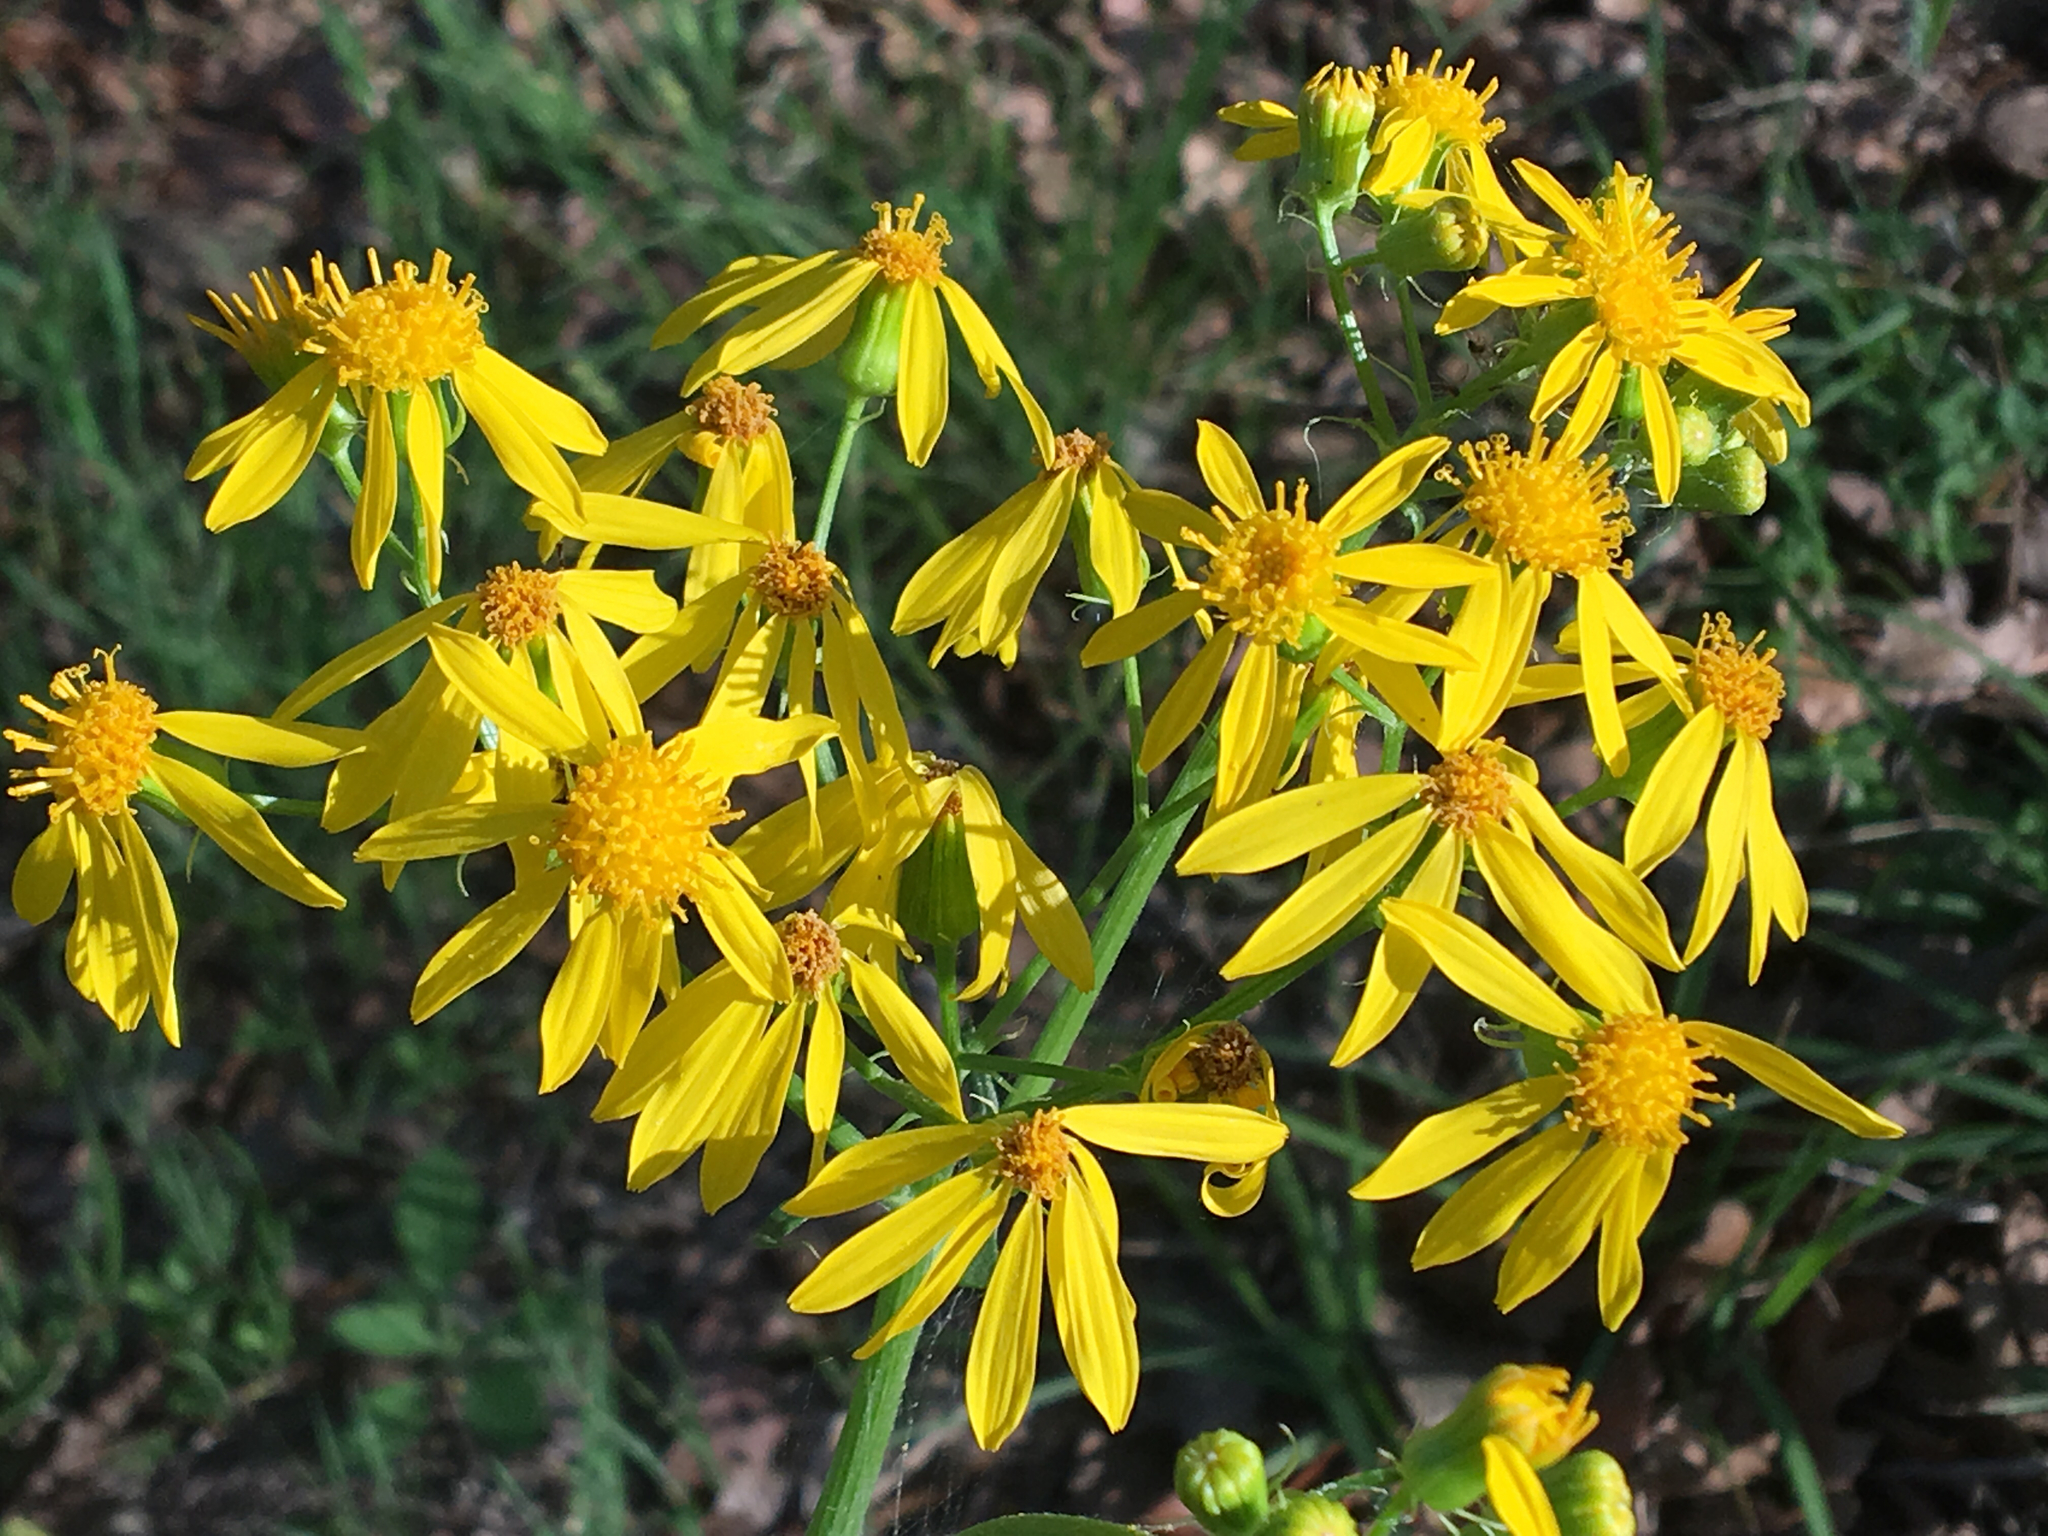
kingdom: Plantae
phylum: Tracheophyta
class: Magnoliopsida
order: Asterales
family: Asteraceae
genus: Senecio
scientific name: Senecio ampullaceus
